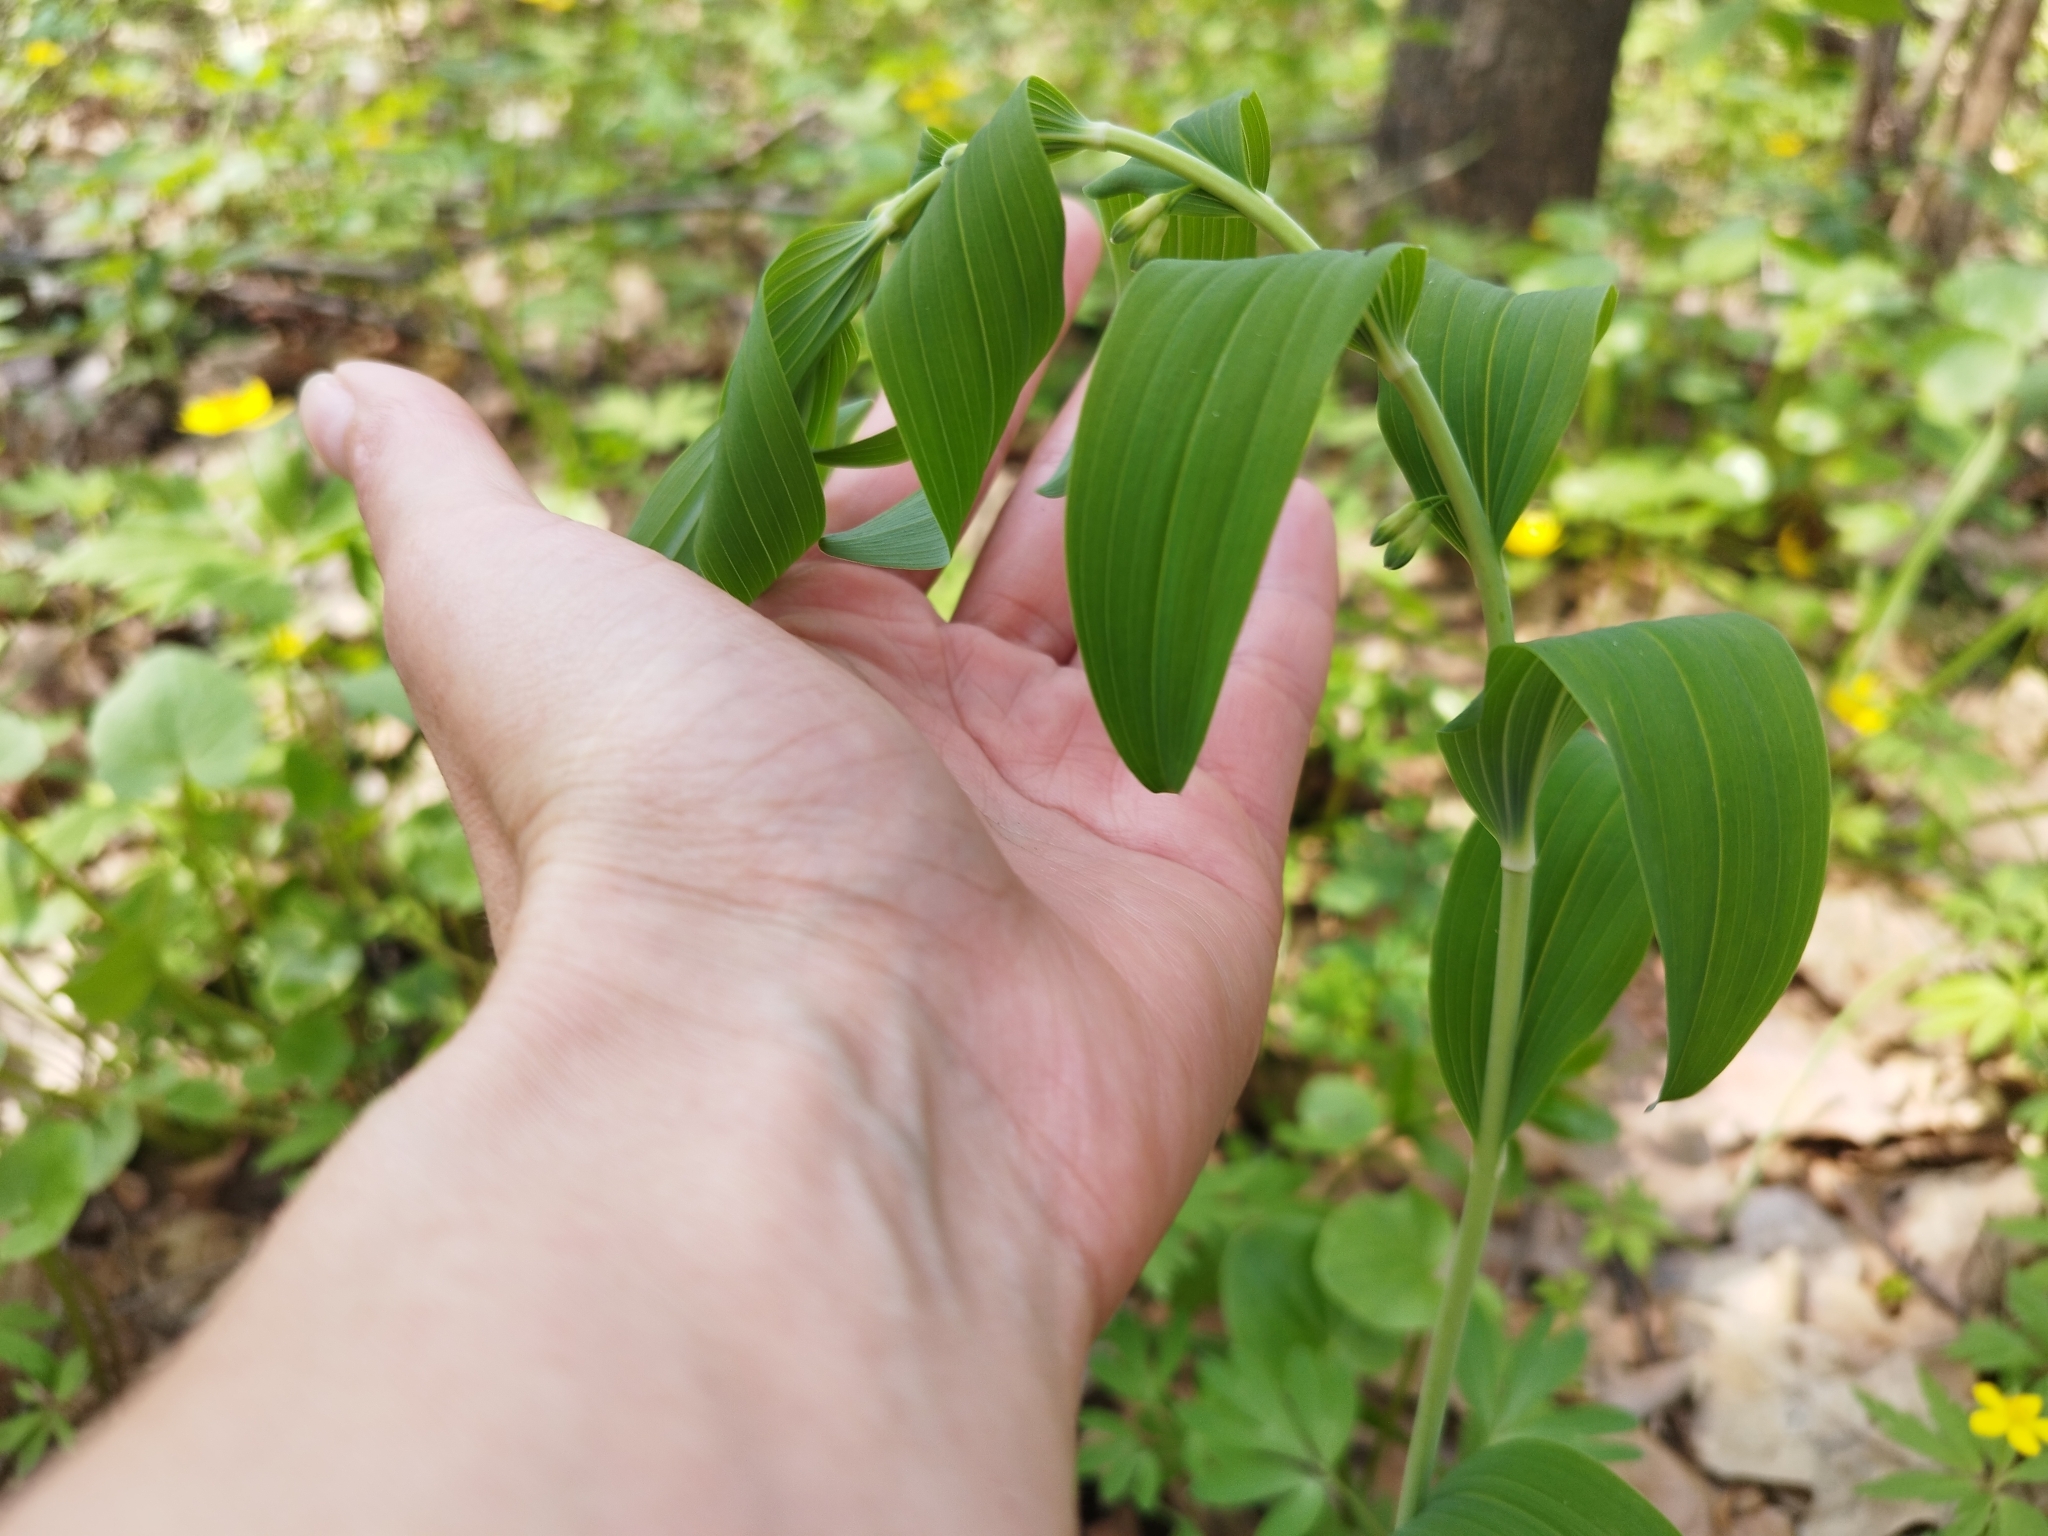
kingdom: Plantae
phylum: Tracheophyta
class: Liliopsida
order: Asparagales
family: Asparagaceae
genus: Polygonatum
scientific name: Polygonatum multiflorum
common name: Solomon's-seal
